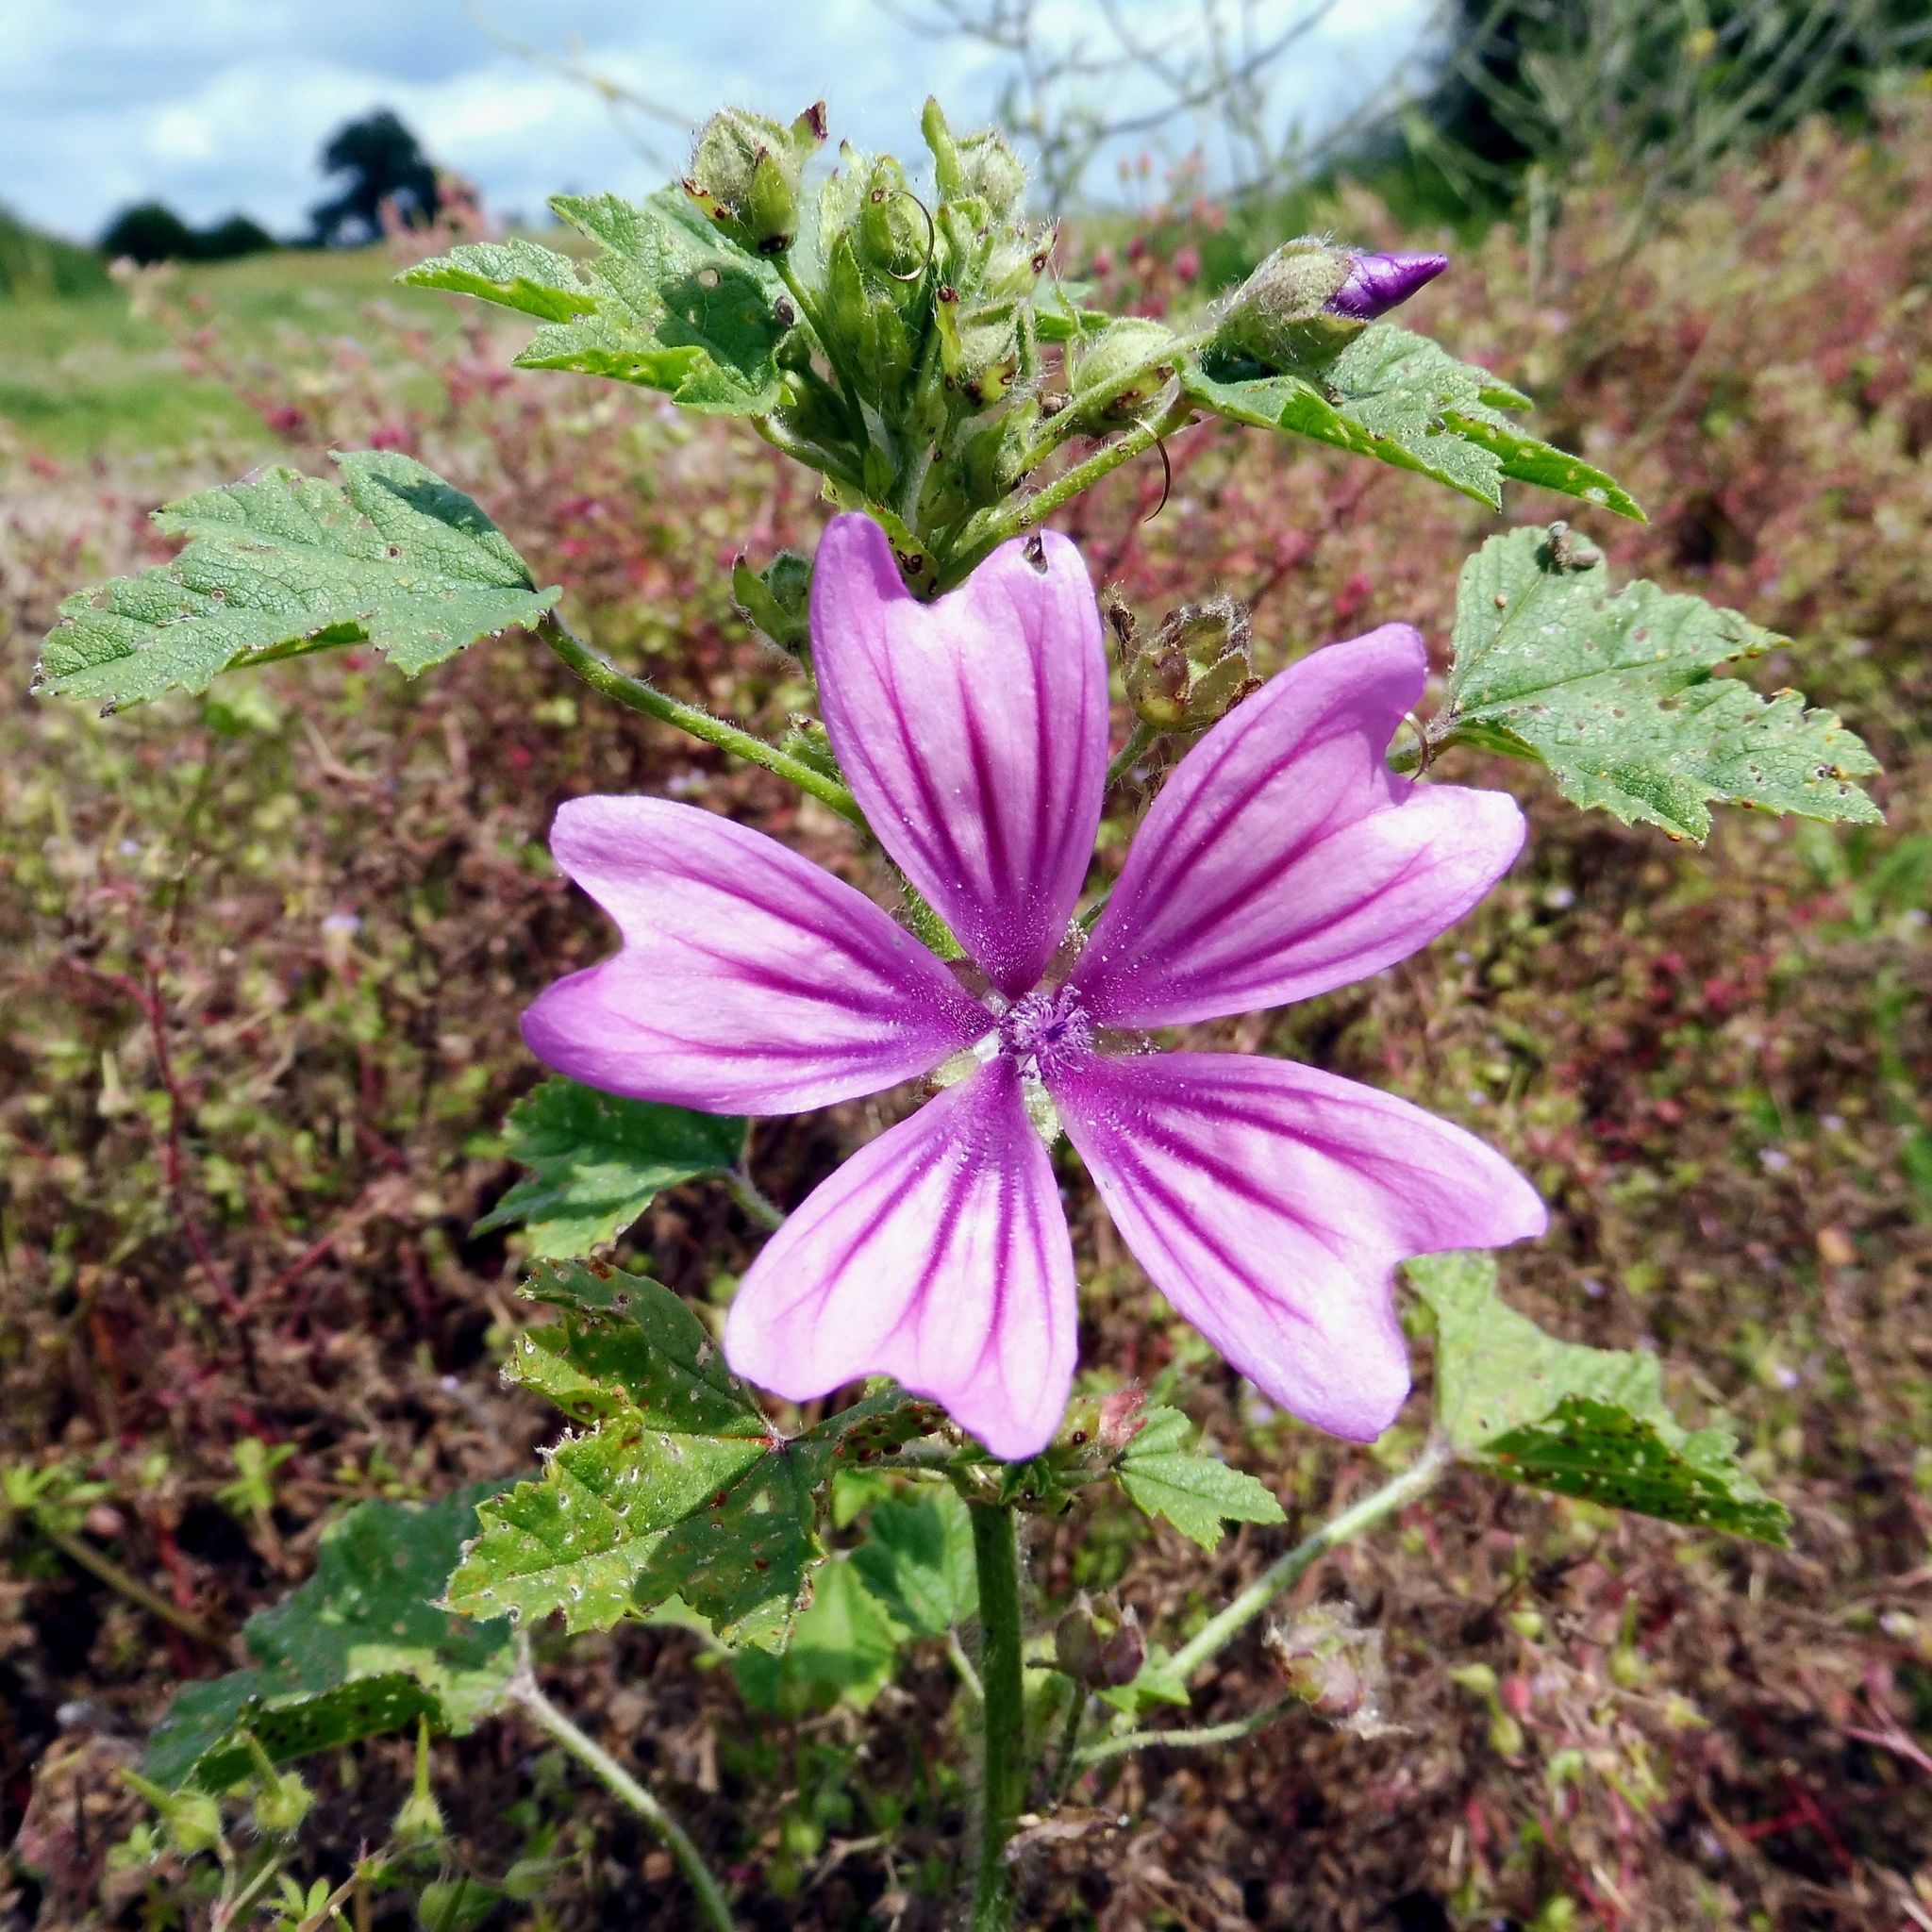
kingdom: Plantae
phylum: Tracheophyta
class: Magnoliopsida
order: Malvales
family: Malvaceae
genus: Malva
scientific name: Malva sylvestris
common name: Common mallow
